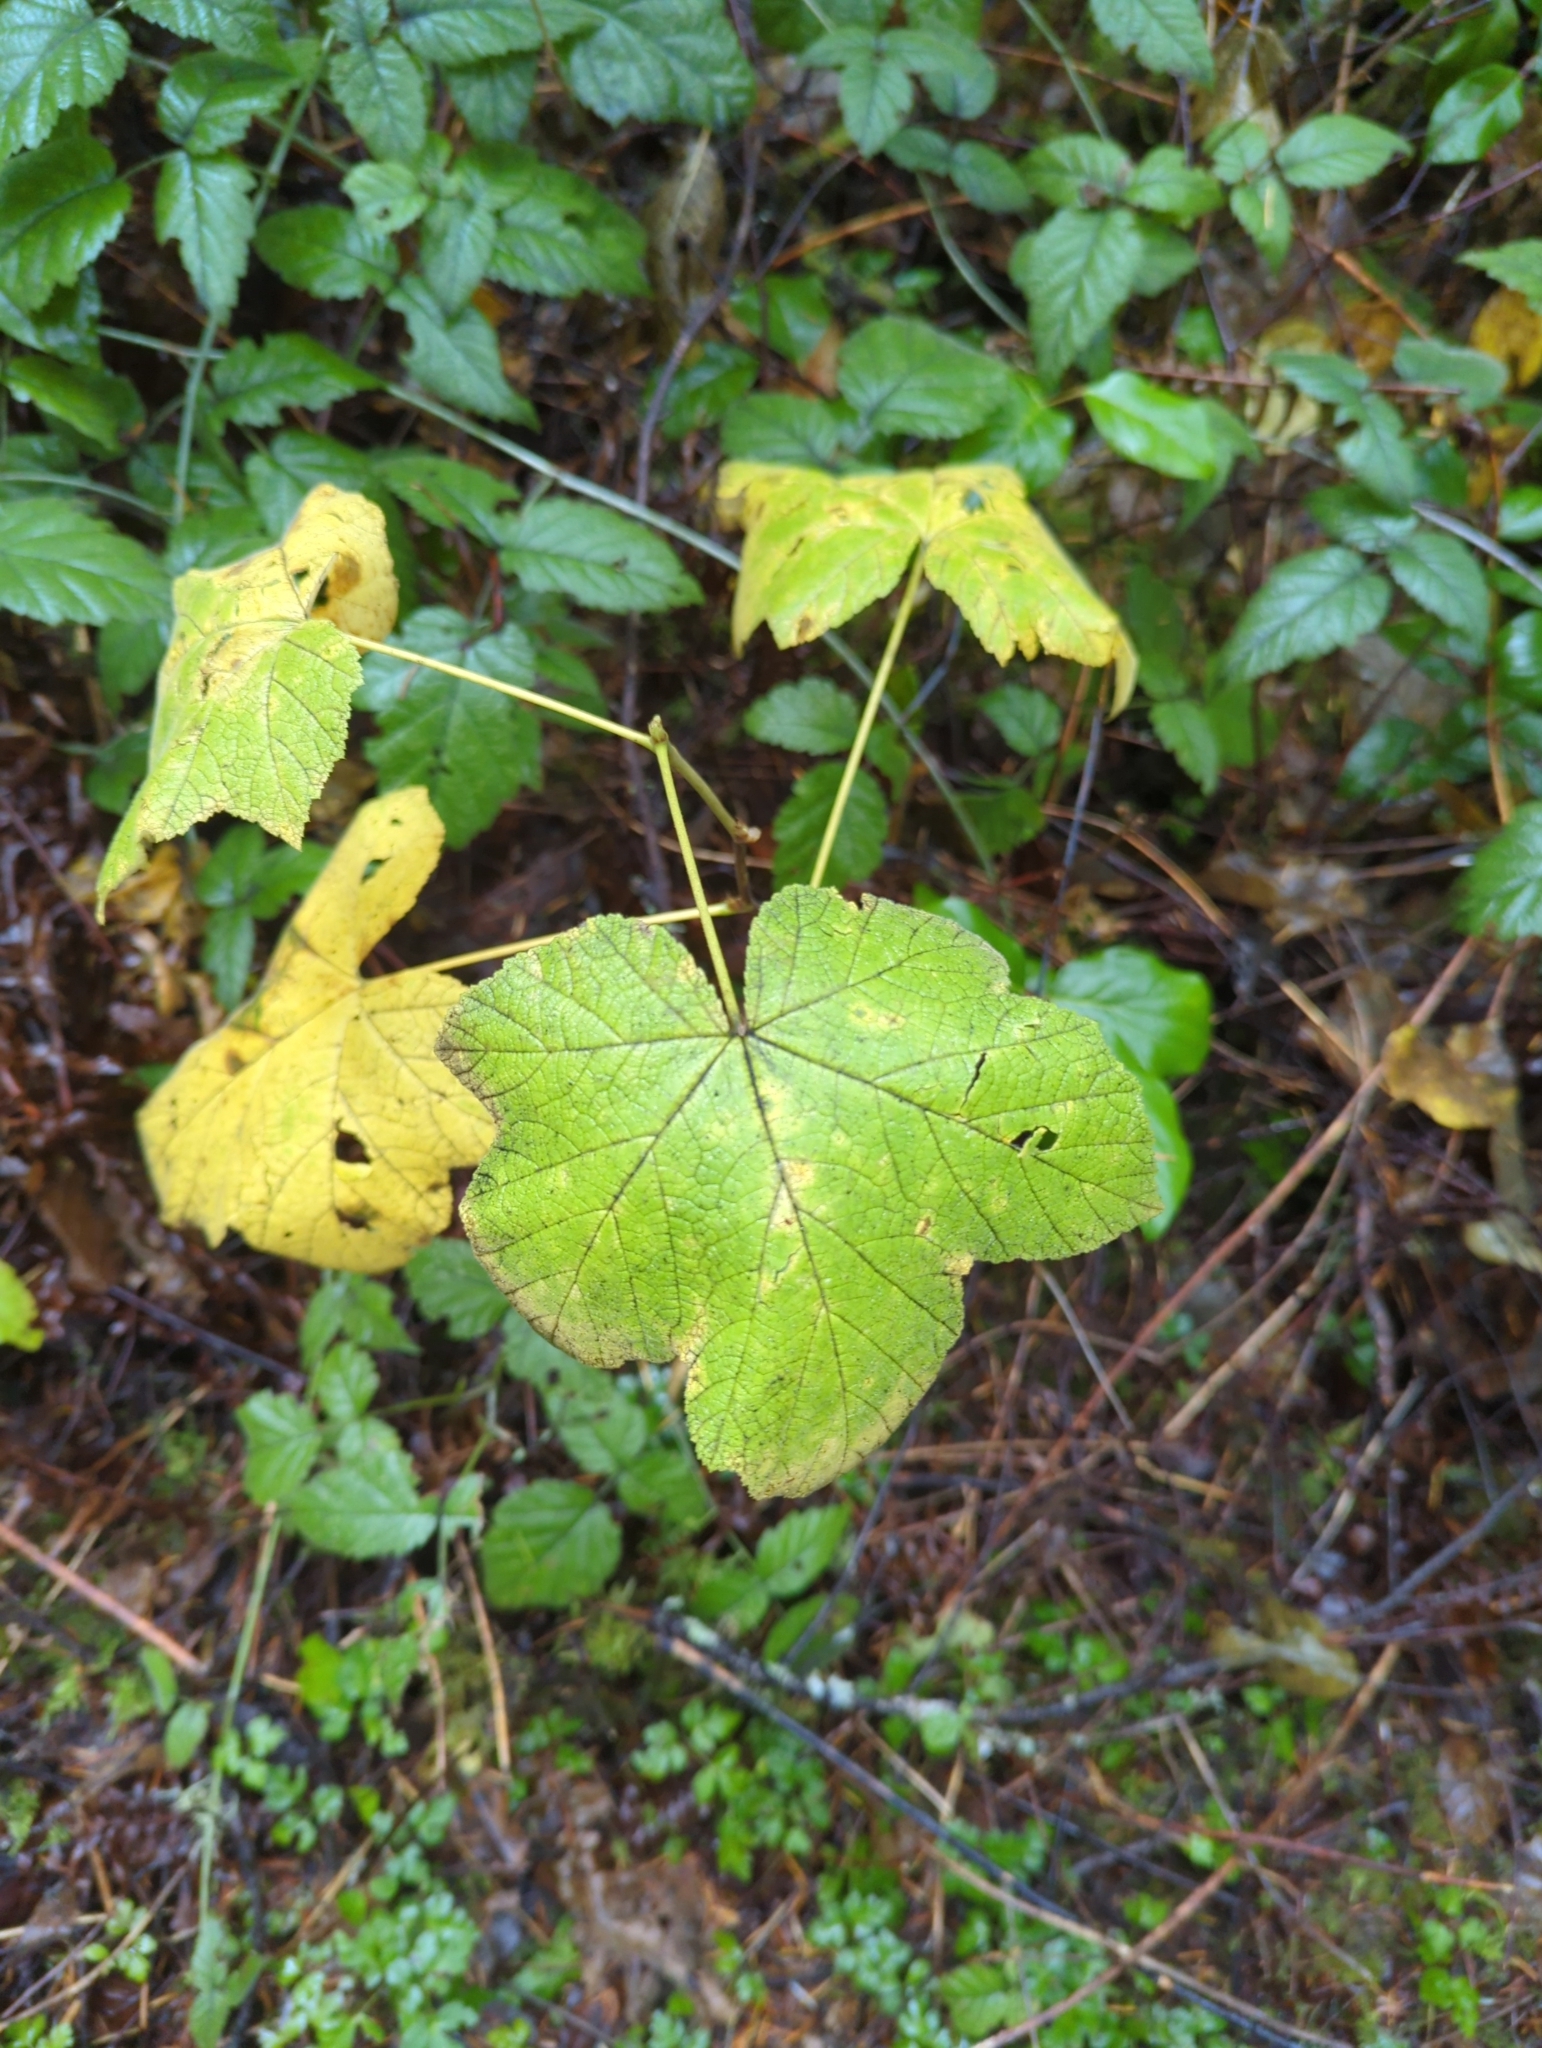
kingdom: Plantae
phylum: Tracheophyta
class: Magnoliopsida
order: Rosales
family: Rosaceae
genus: Rubus
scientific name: Rubus parviflorus
